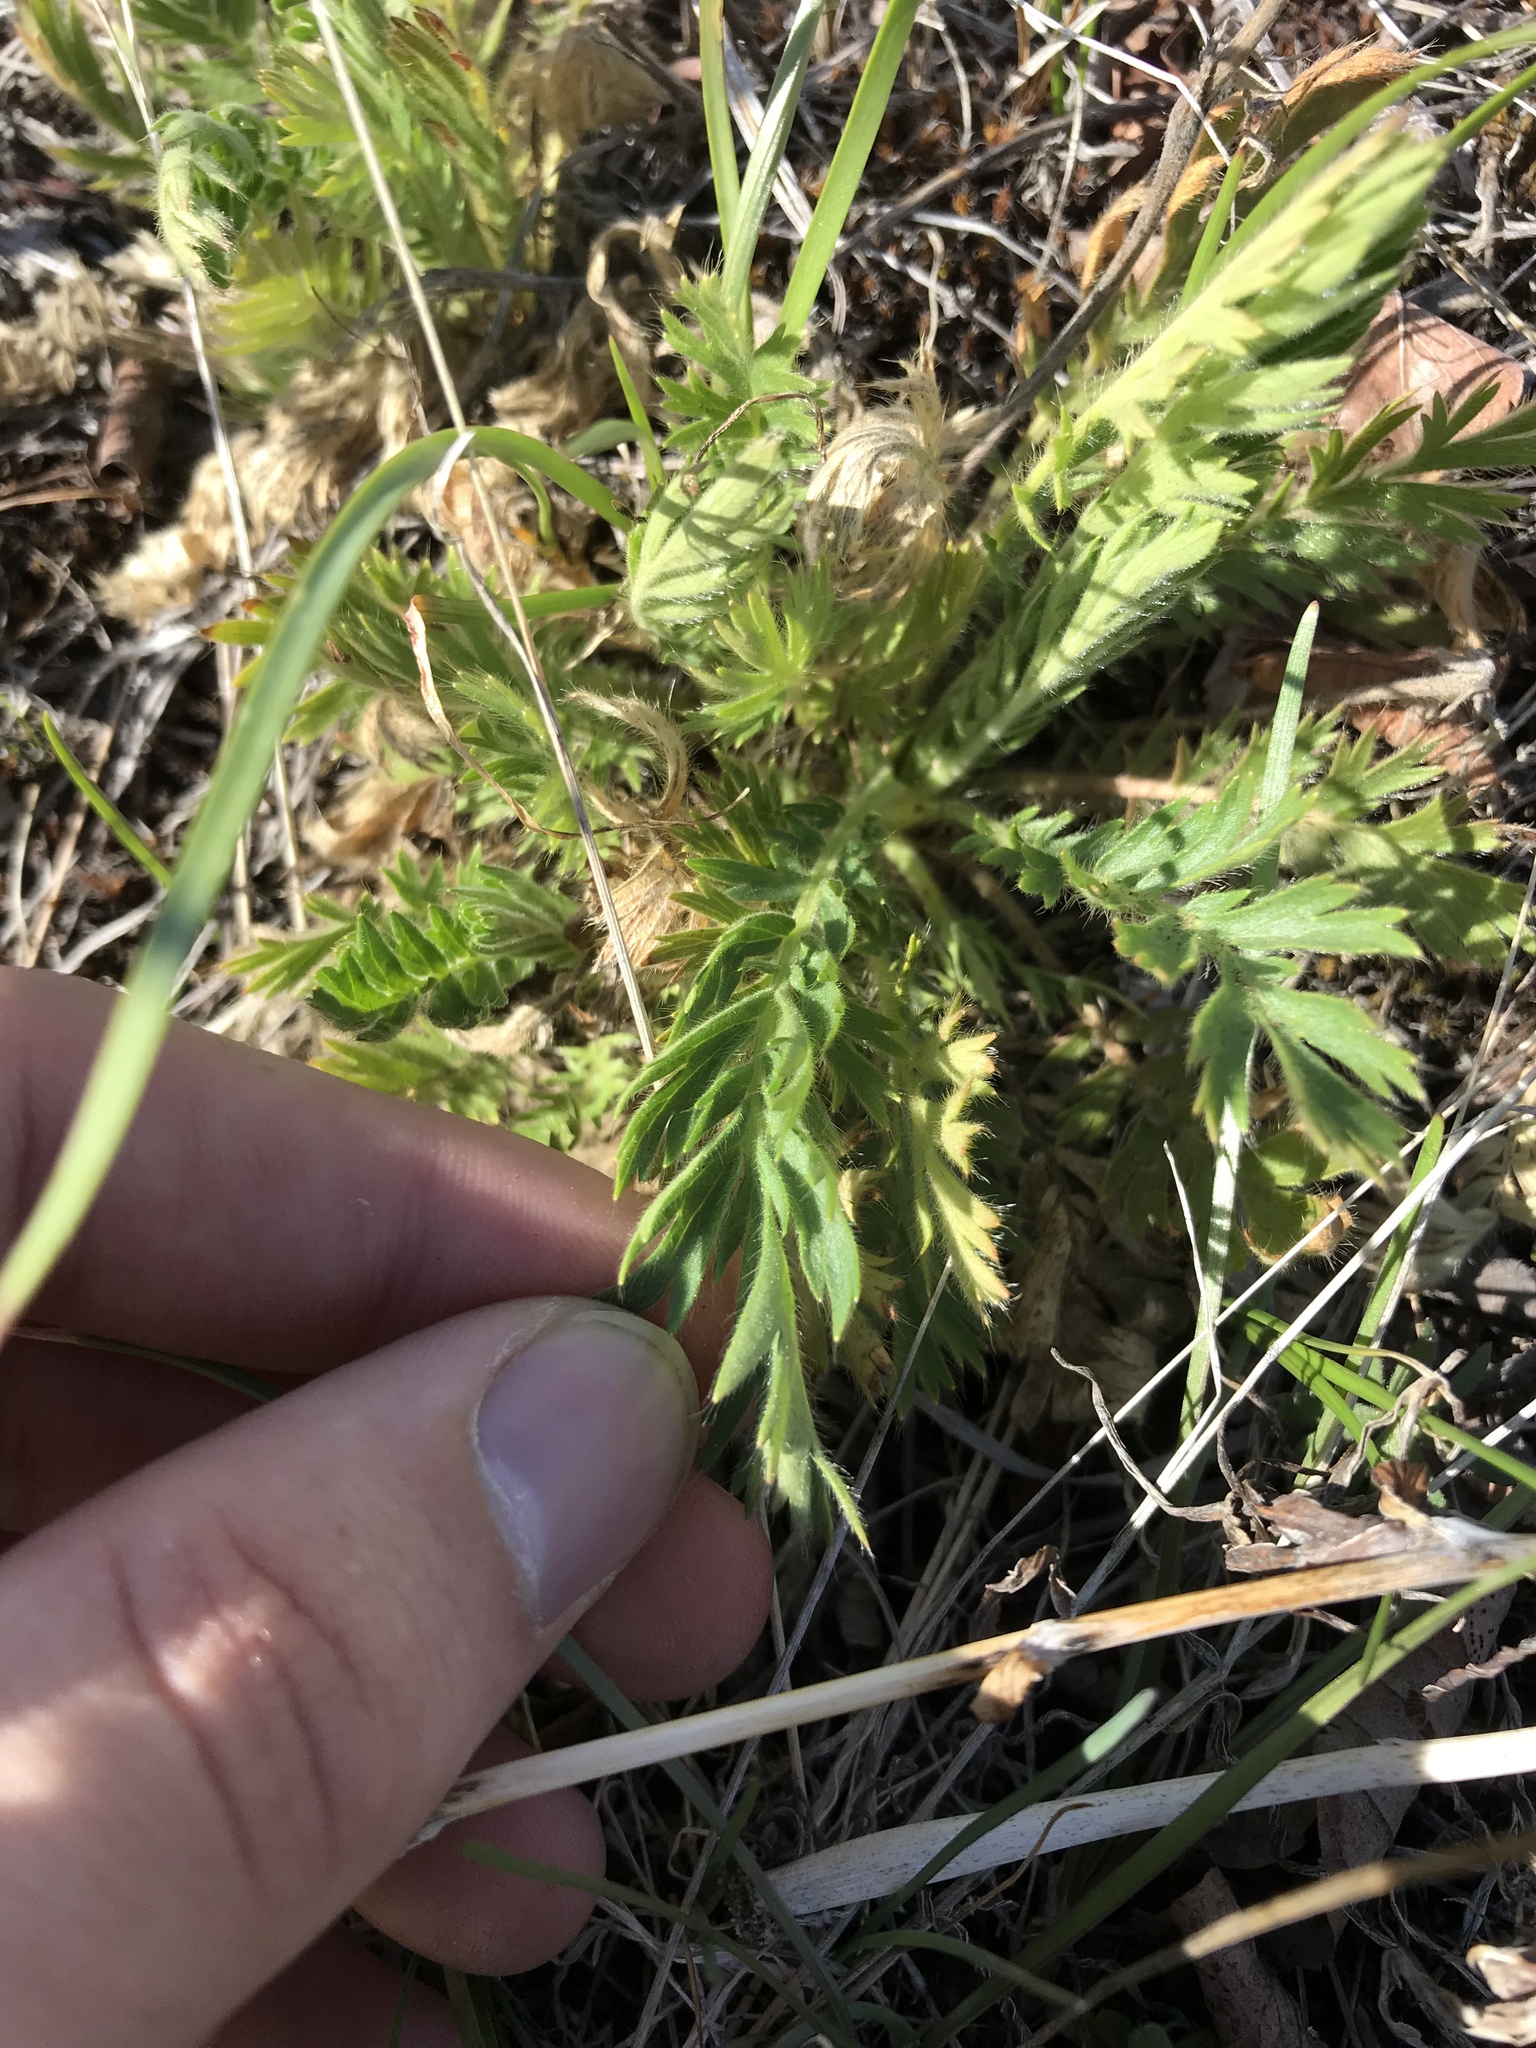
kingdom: Plantae
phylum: Tracheophyta
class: Magnoliopsida
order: Rosales
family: Rosaceae
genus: Geum
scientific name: Geum triflorum
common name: Old man's whiskers
